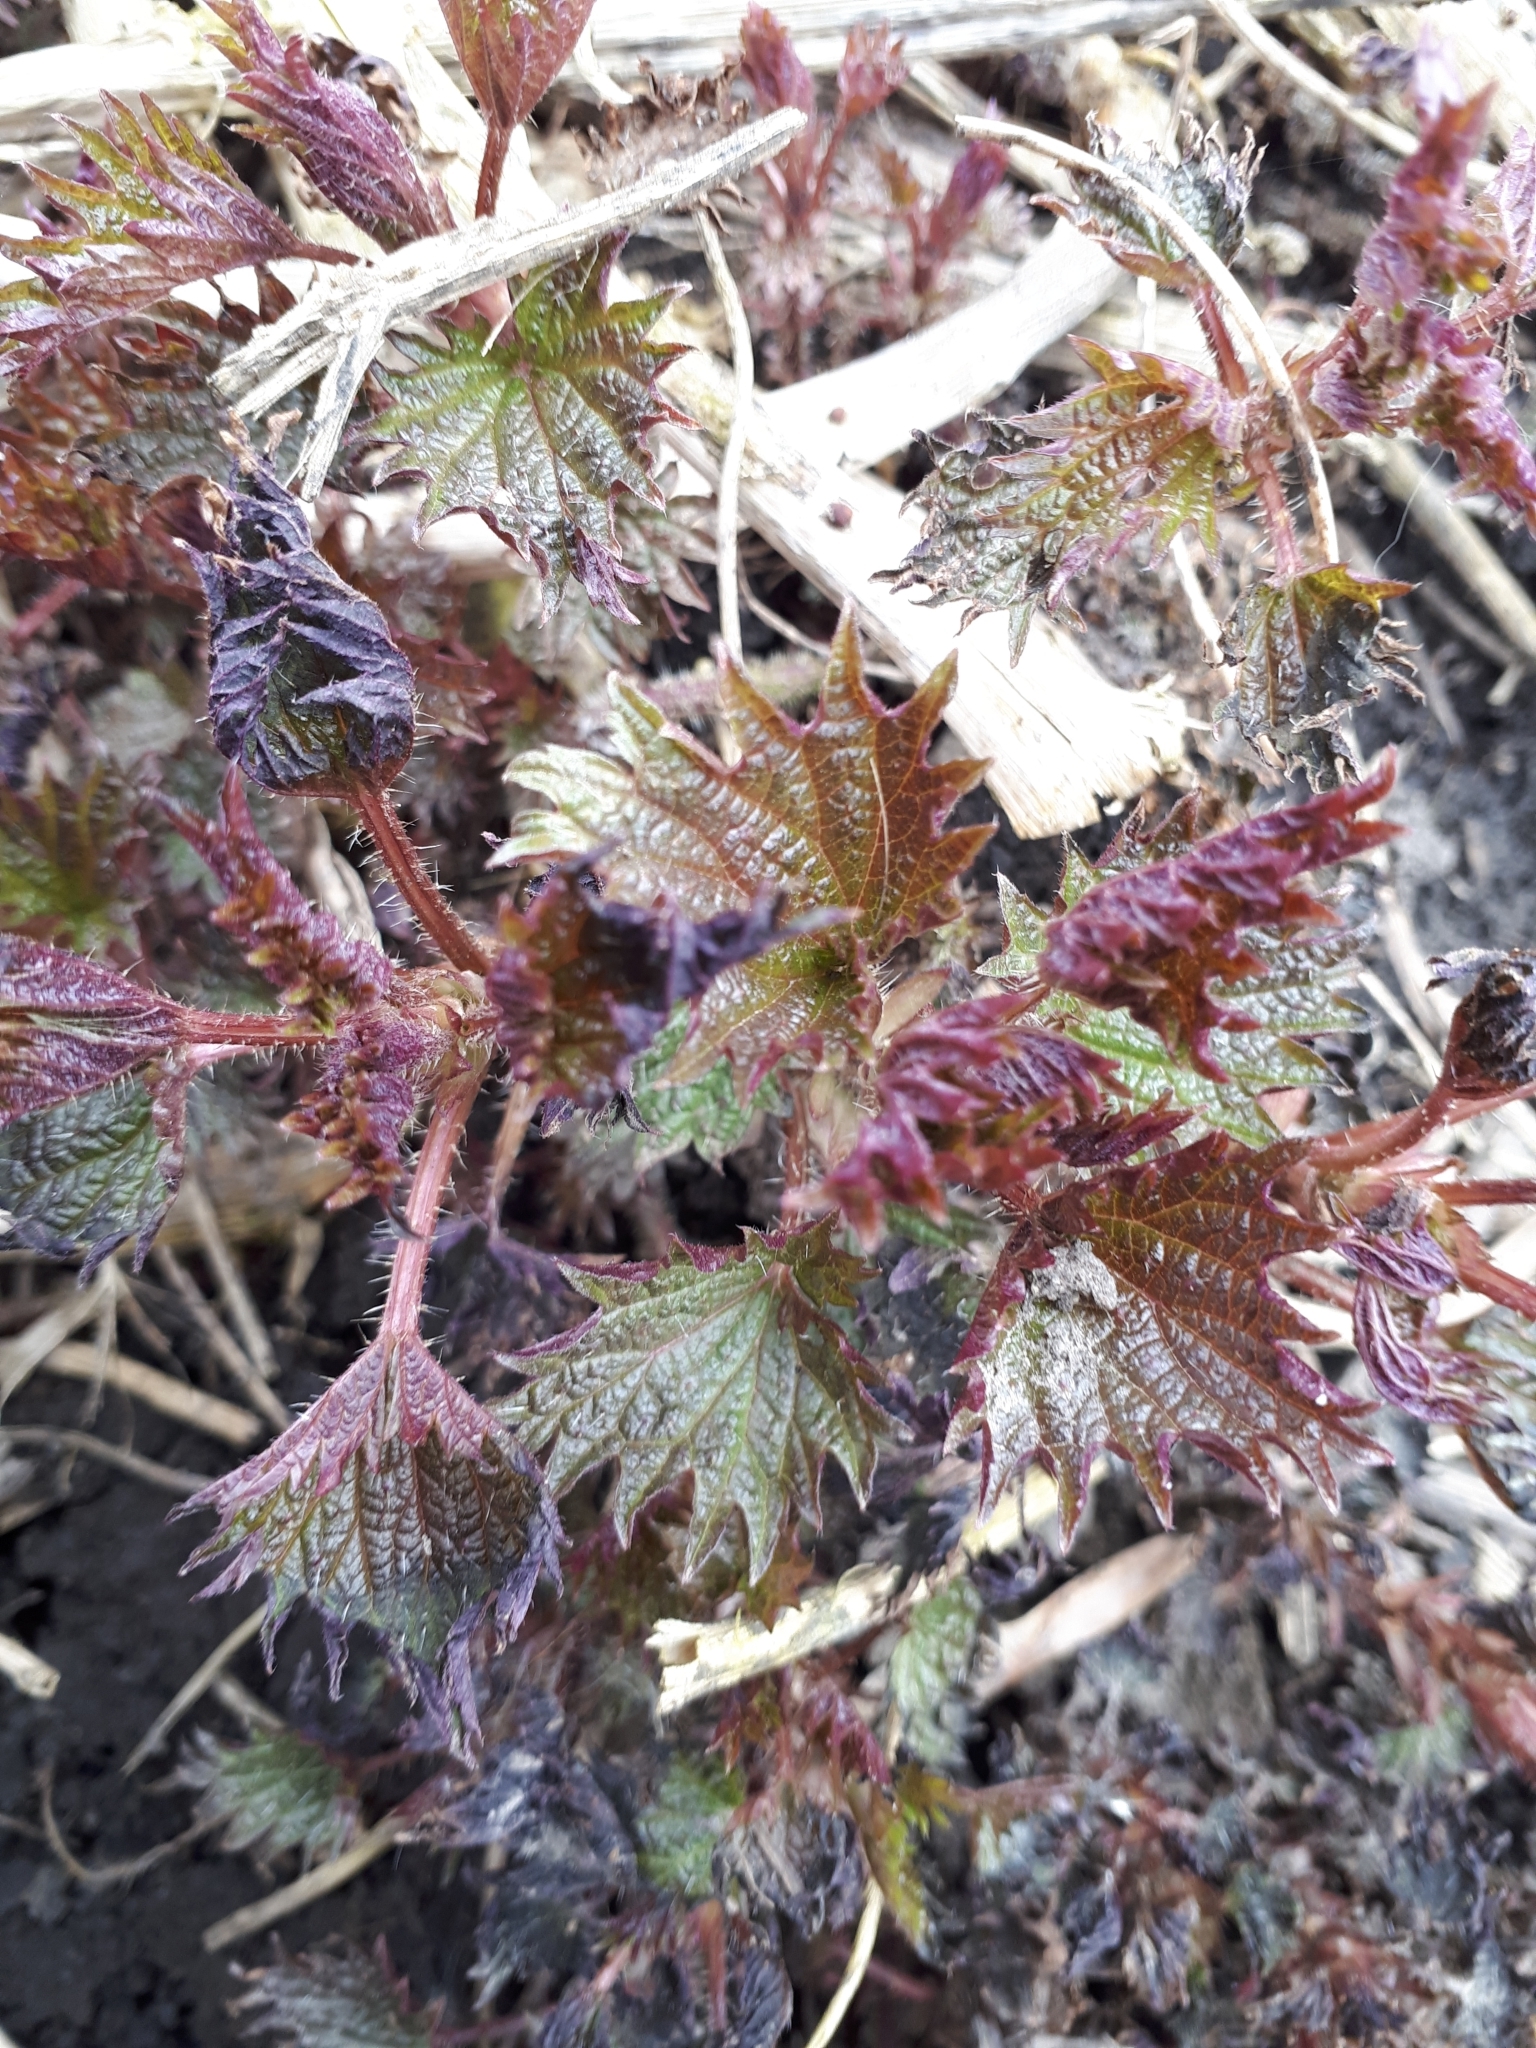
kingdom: Plantae
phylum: Tracheophyta
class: Magnoliopsida
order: Rosales
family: Urticaceae
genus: Urtica
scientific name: Urtica dioica
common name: Common nettle
